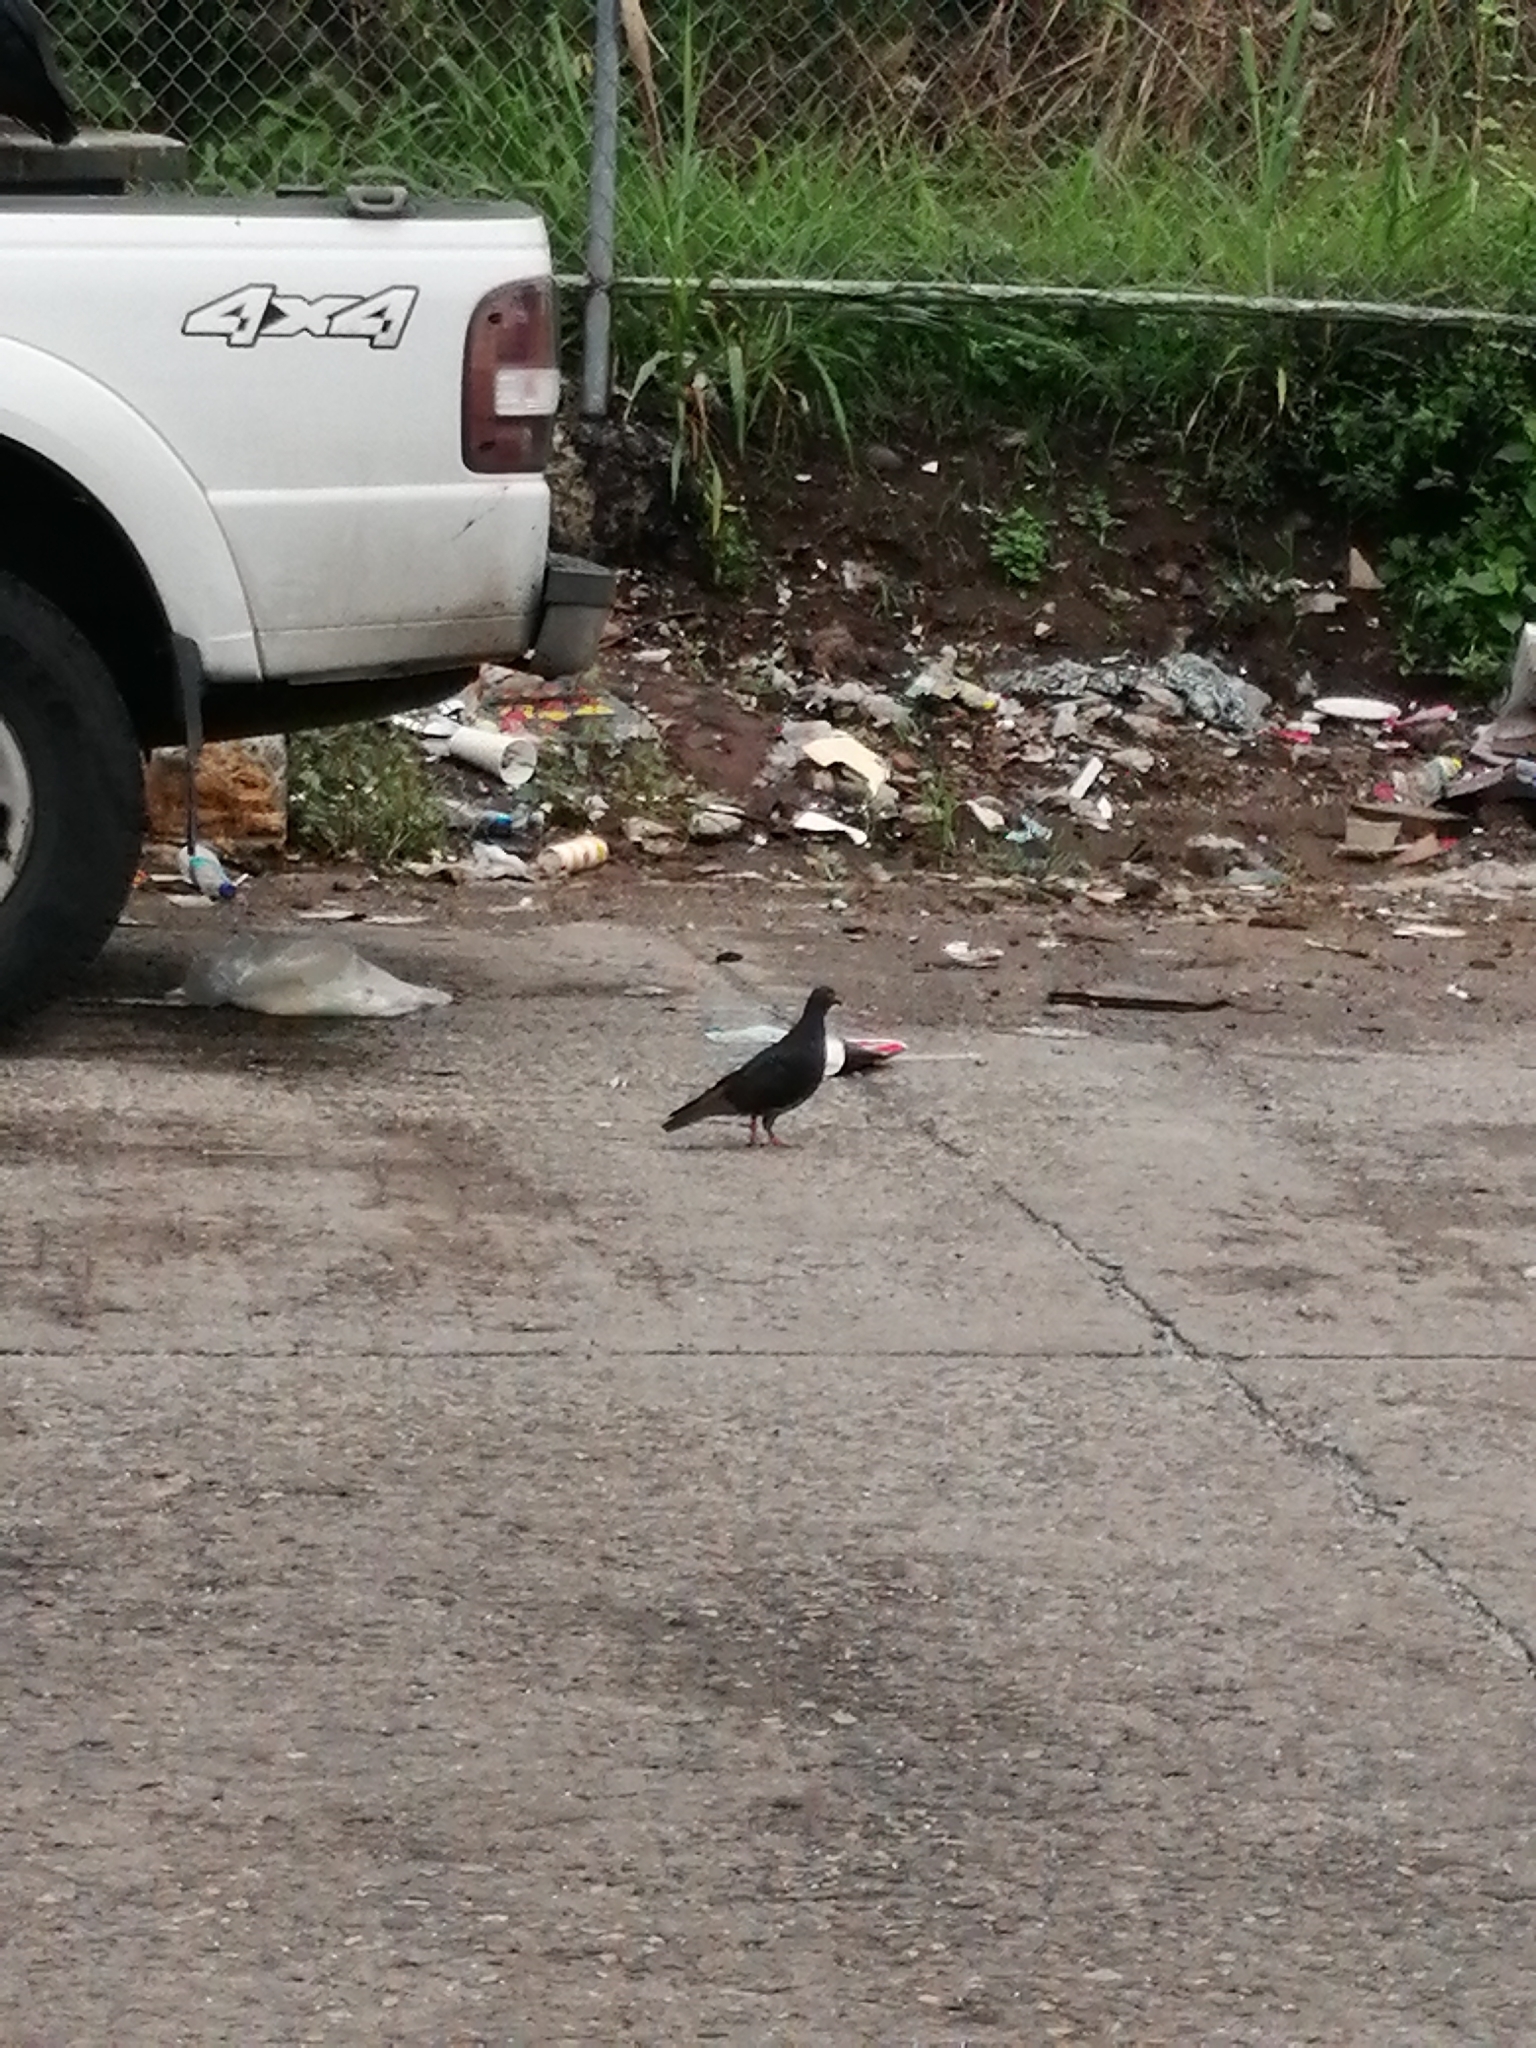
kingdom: Animalia
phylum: Chordata
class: Aves
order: Columbiformes
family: Columbidae
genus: Columba
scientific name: Columba livia
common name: Rock pigeon
